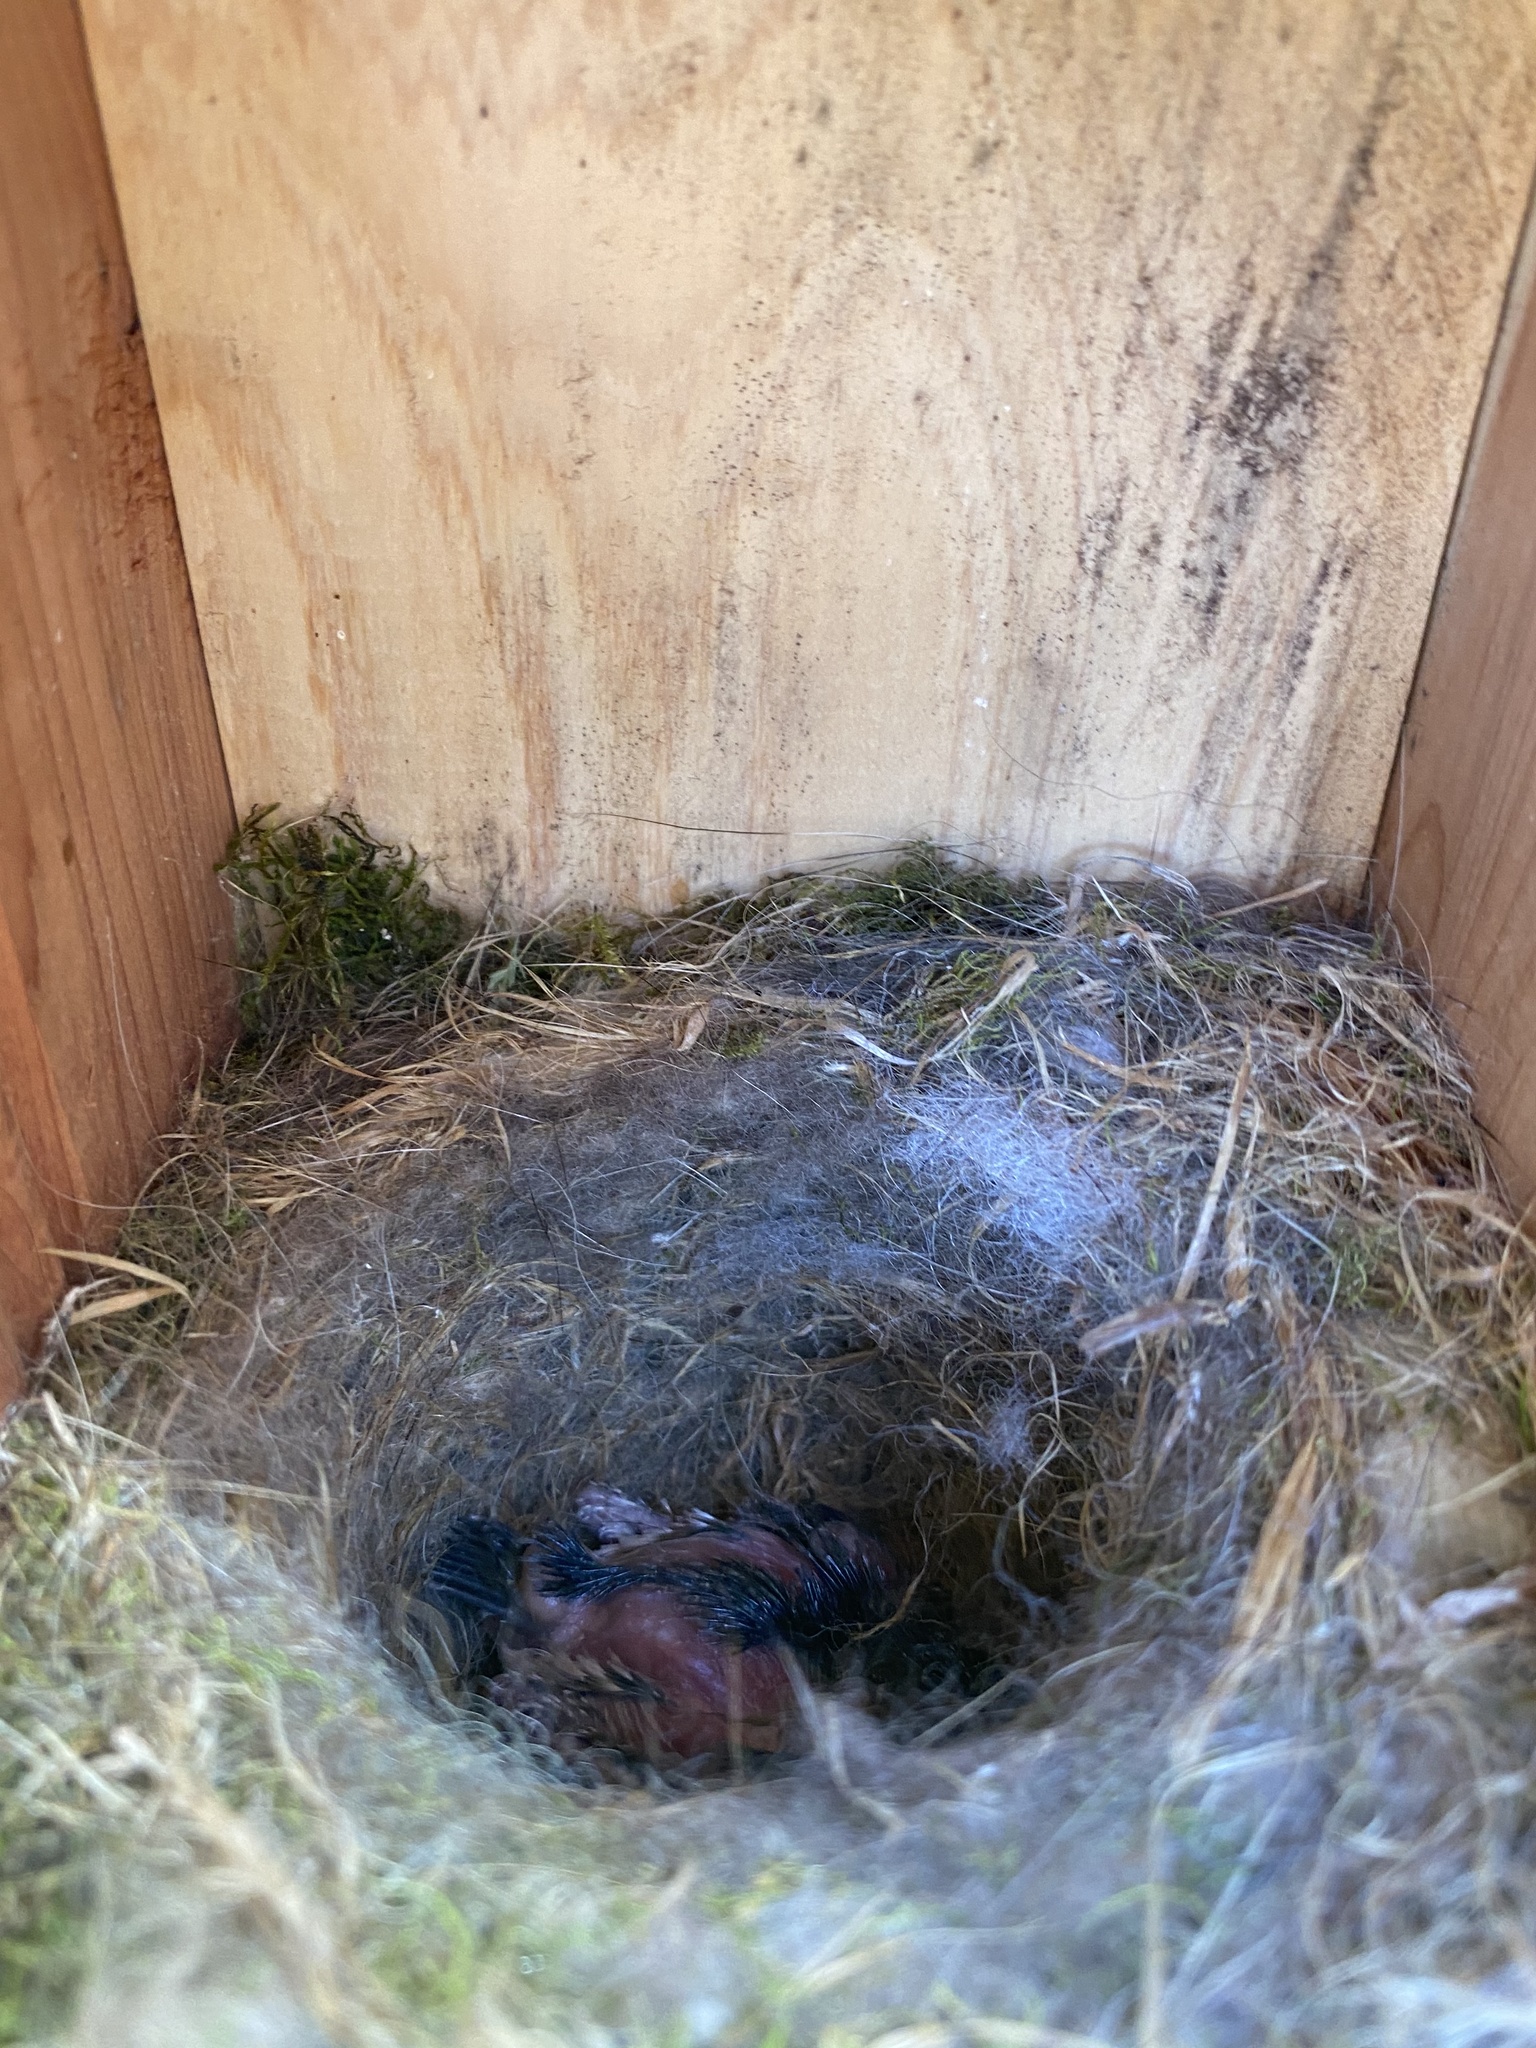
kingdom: Animalia
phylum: Chordata
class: Aves
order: Passeriformes
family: Paridae
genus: Poecile
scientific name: Poecile carolinensis
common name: Carolina chickadee
